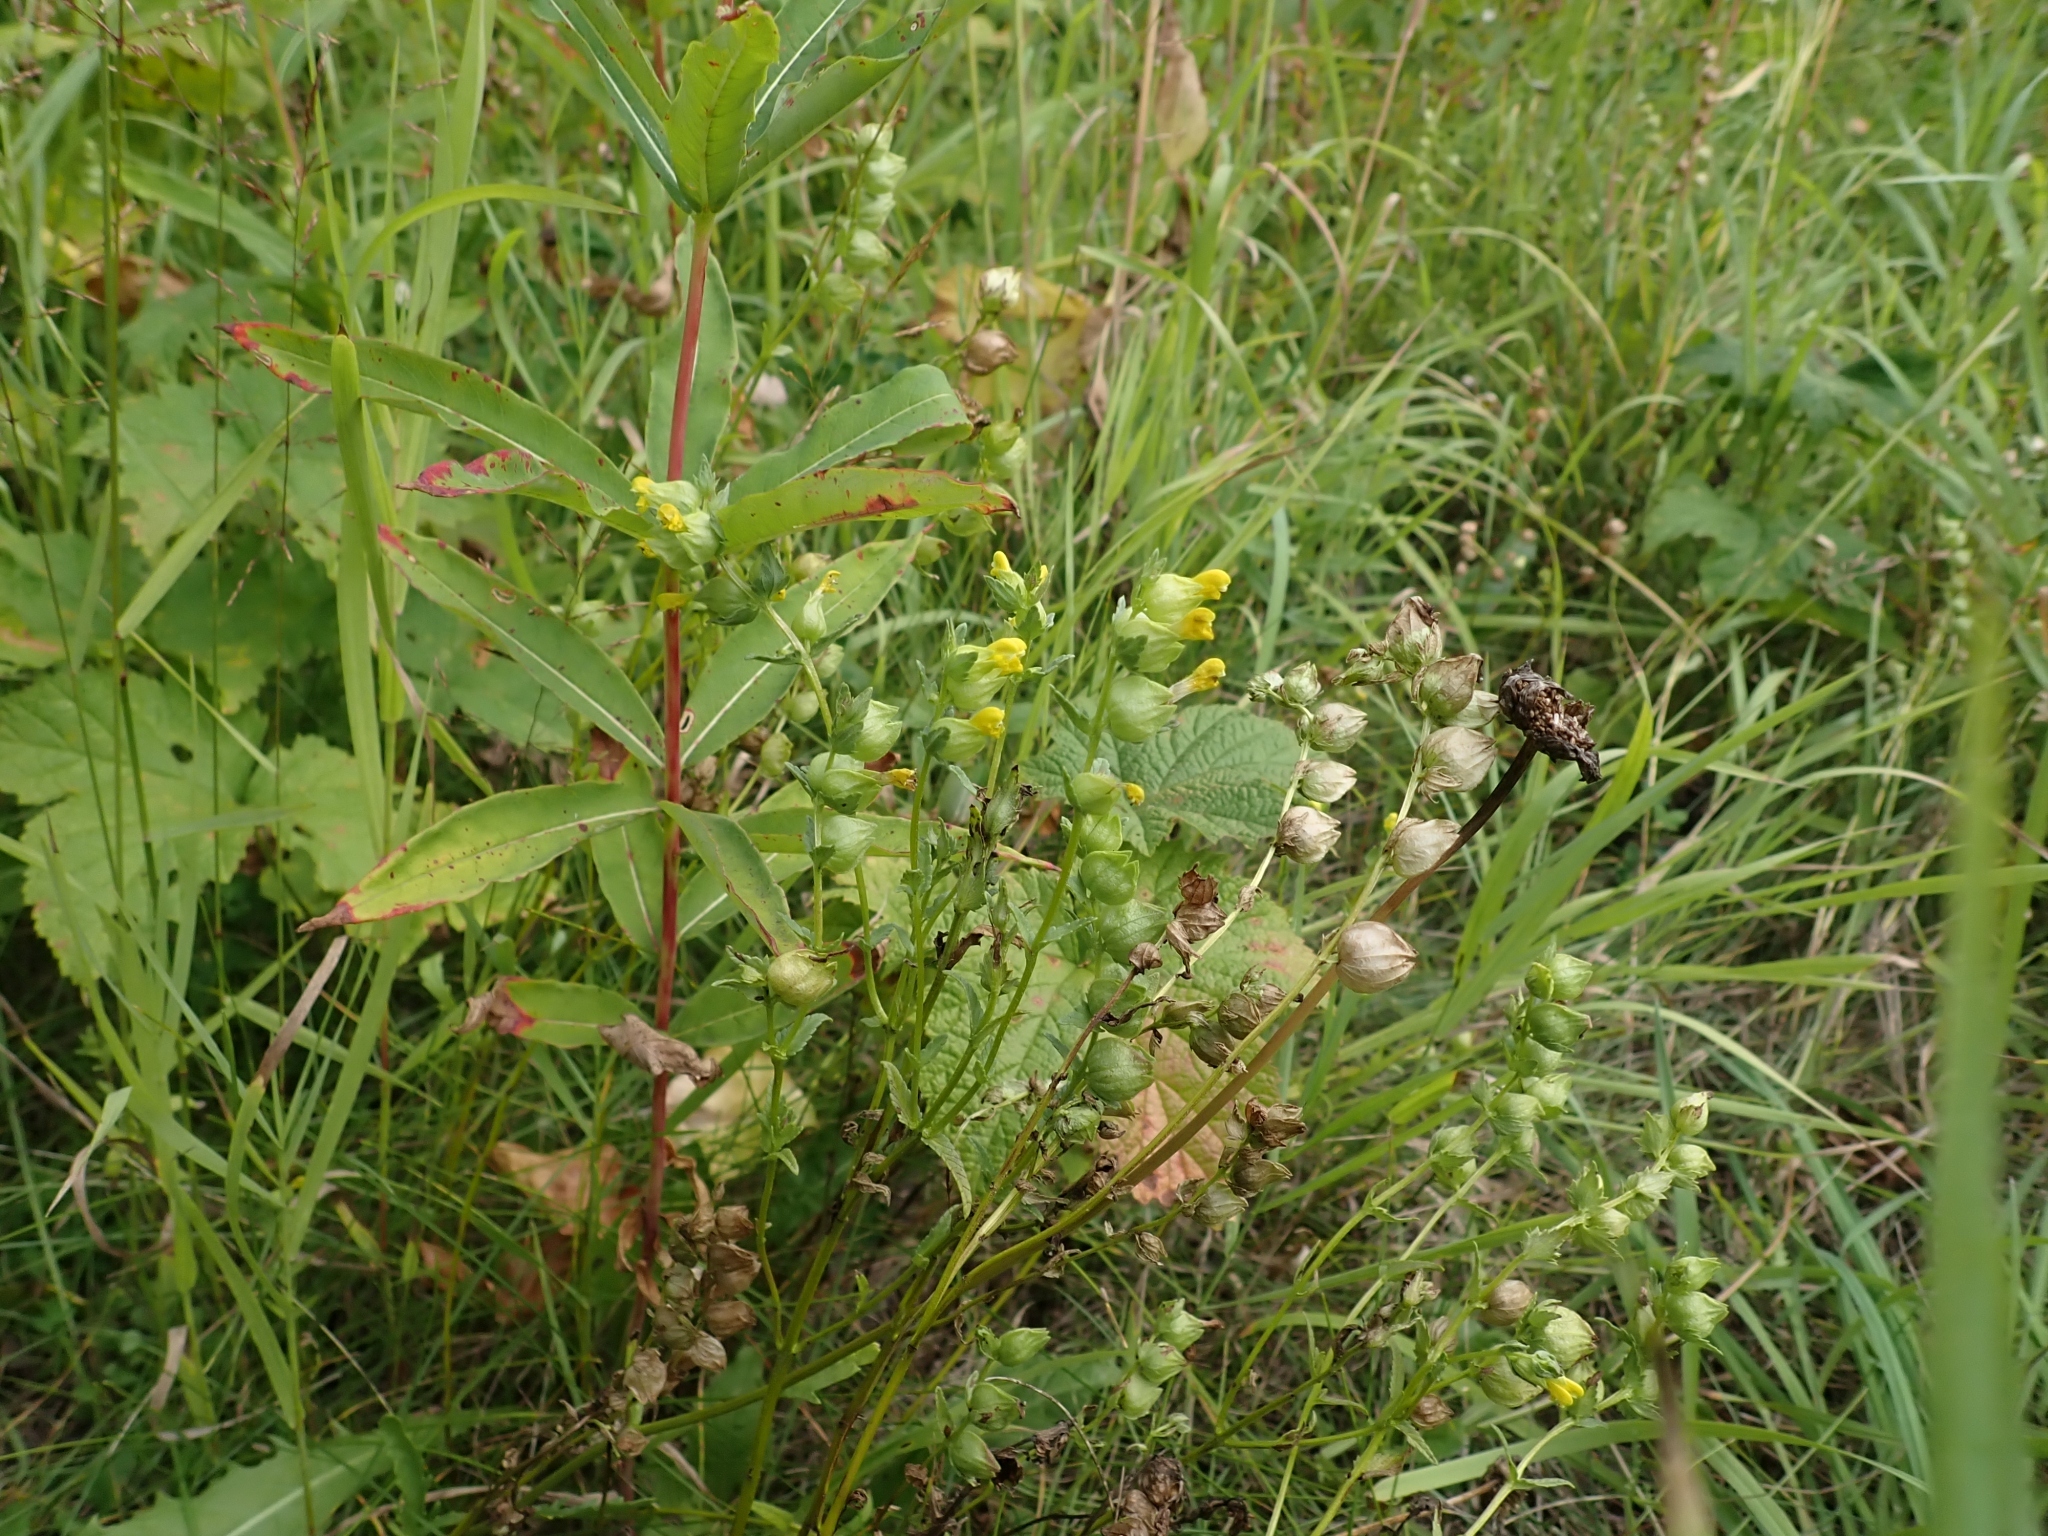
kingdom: Plantae
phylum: Tracheophyta
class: Magnoliopsida
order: Lamiales
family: Orobanchaceae
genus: Rhinanthus
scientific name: Rhinanthus minor
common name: Yellow-rattle
